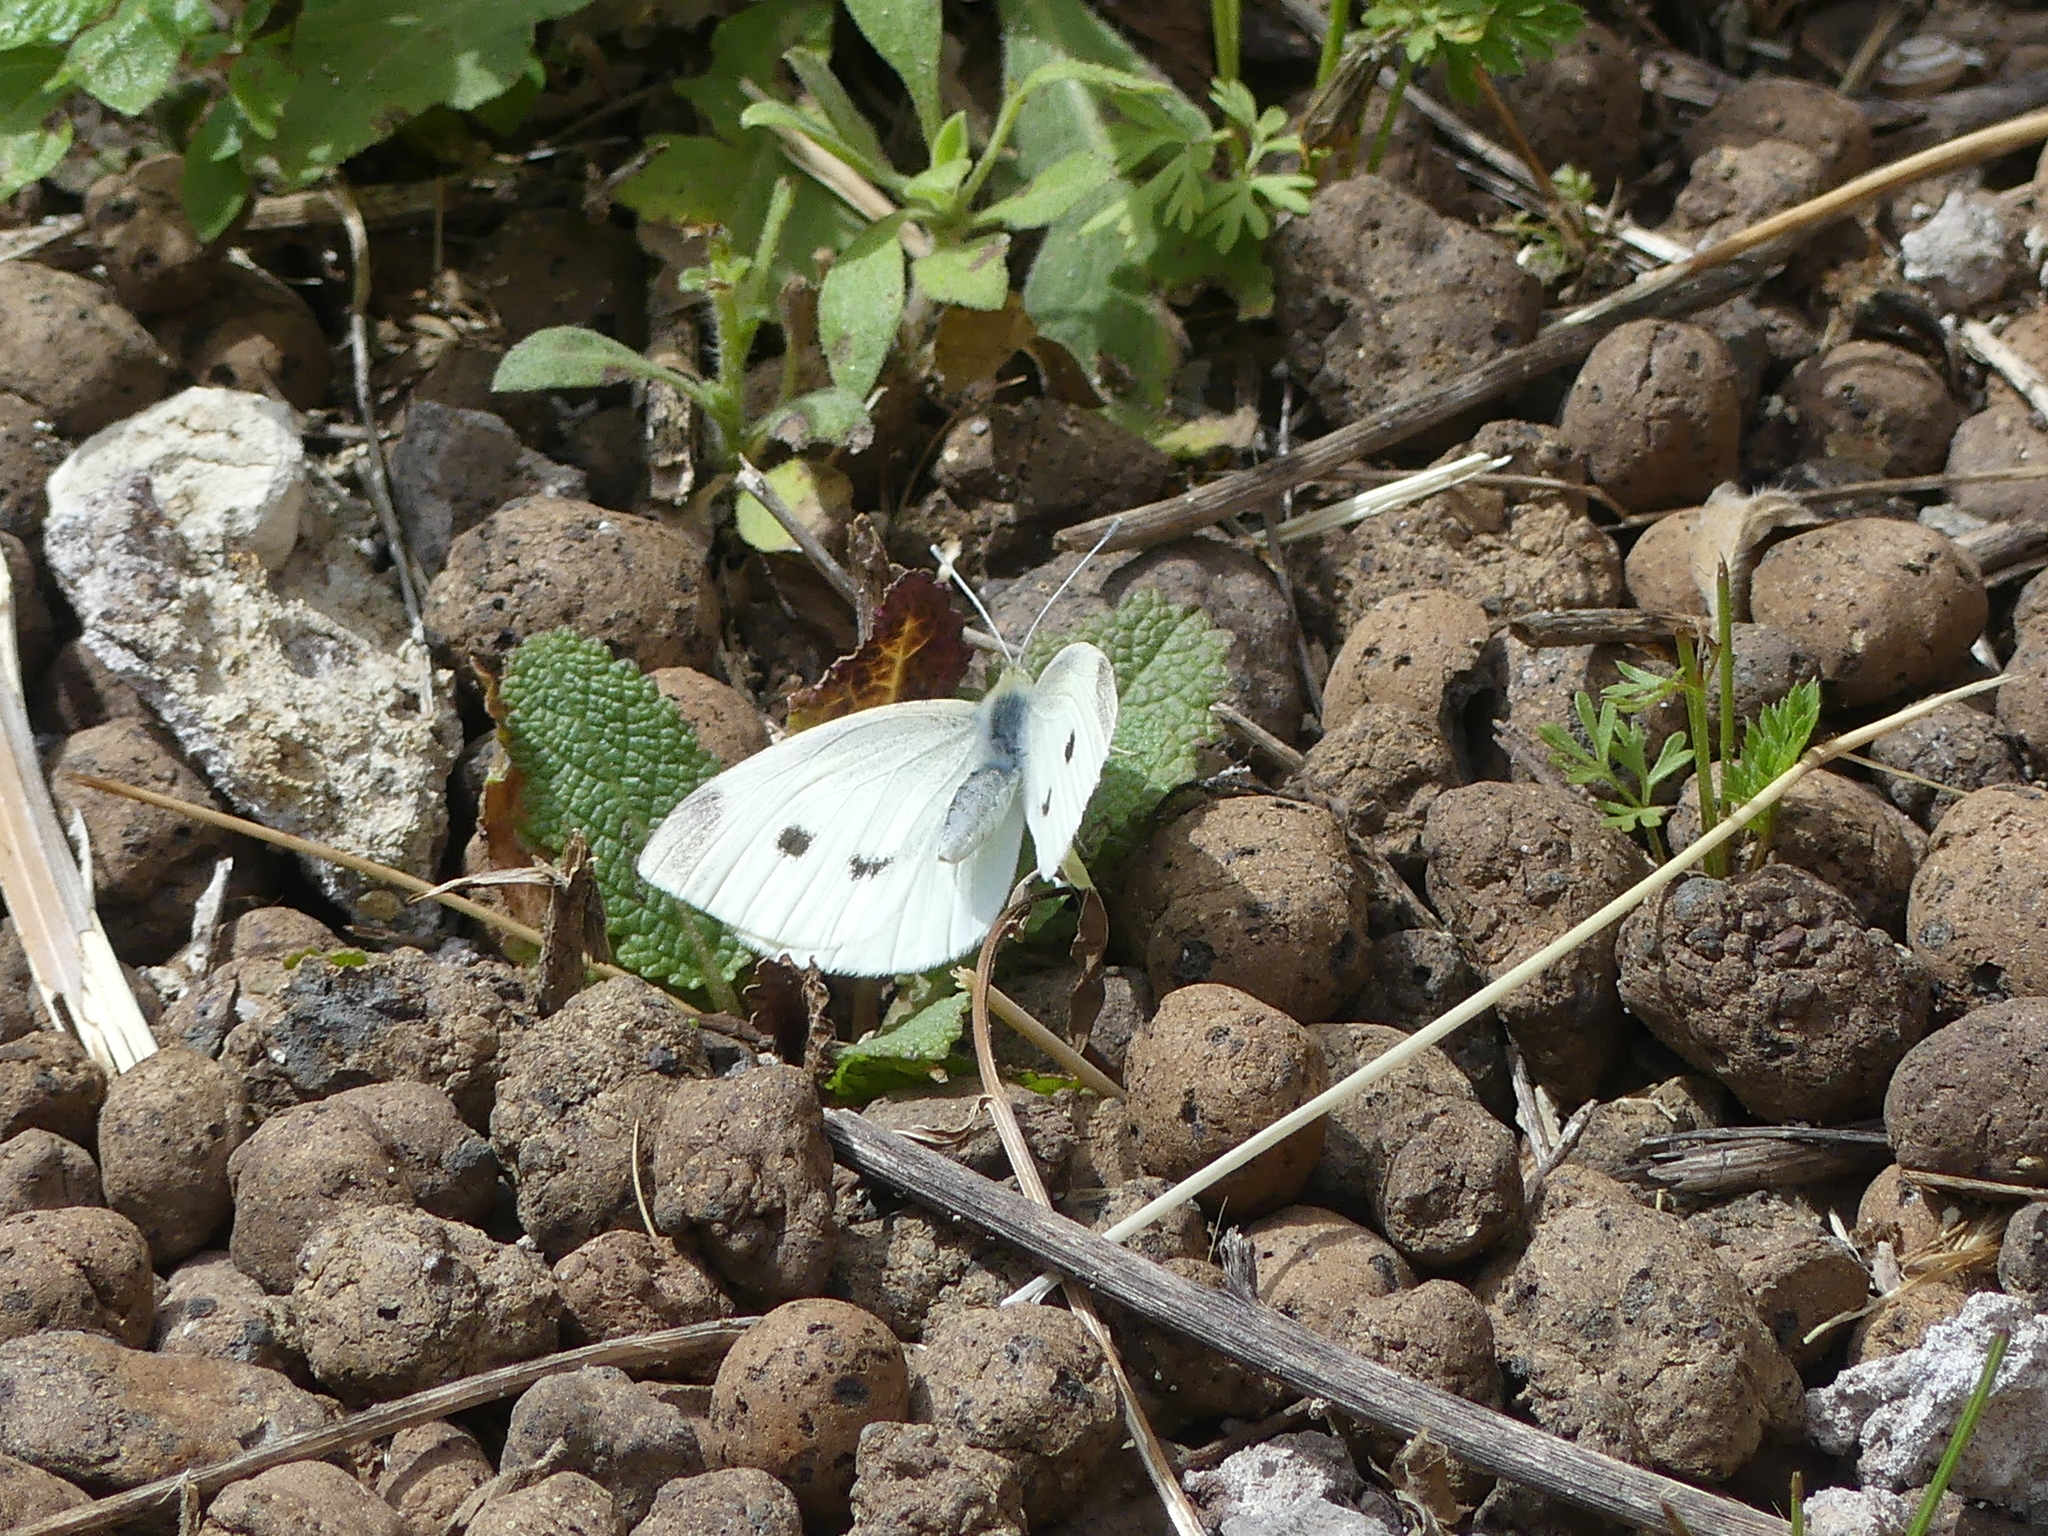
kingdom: Animalia
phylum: Arthropoda
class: Insecta
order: Lepidoptera
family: Pieridae
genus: Pieris
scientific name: Pieris rapae
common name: Small white
